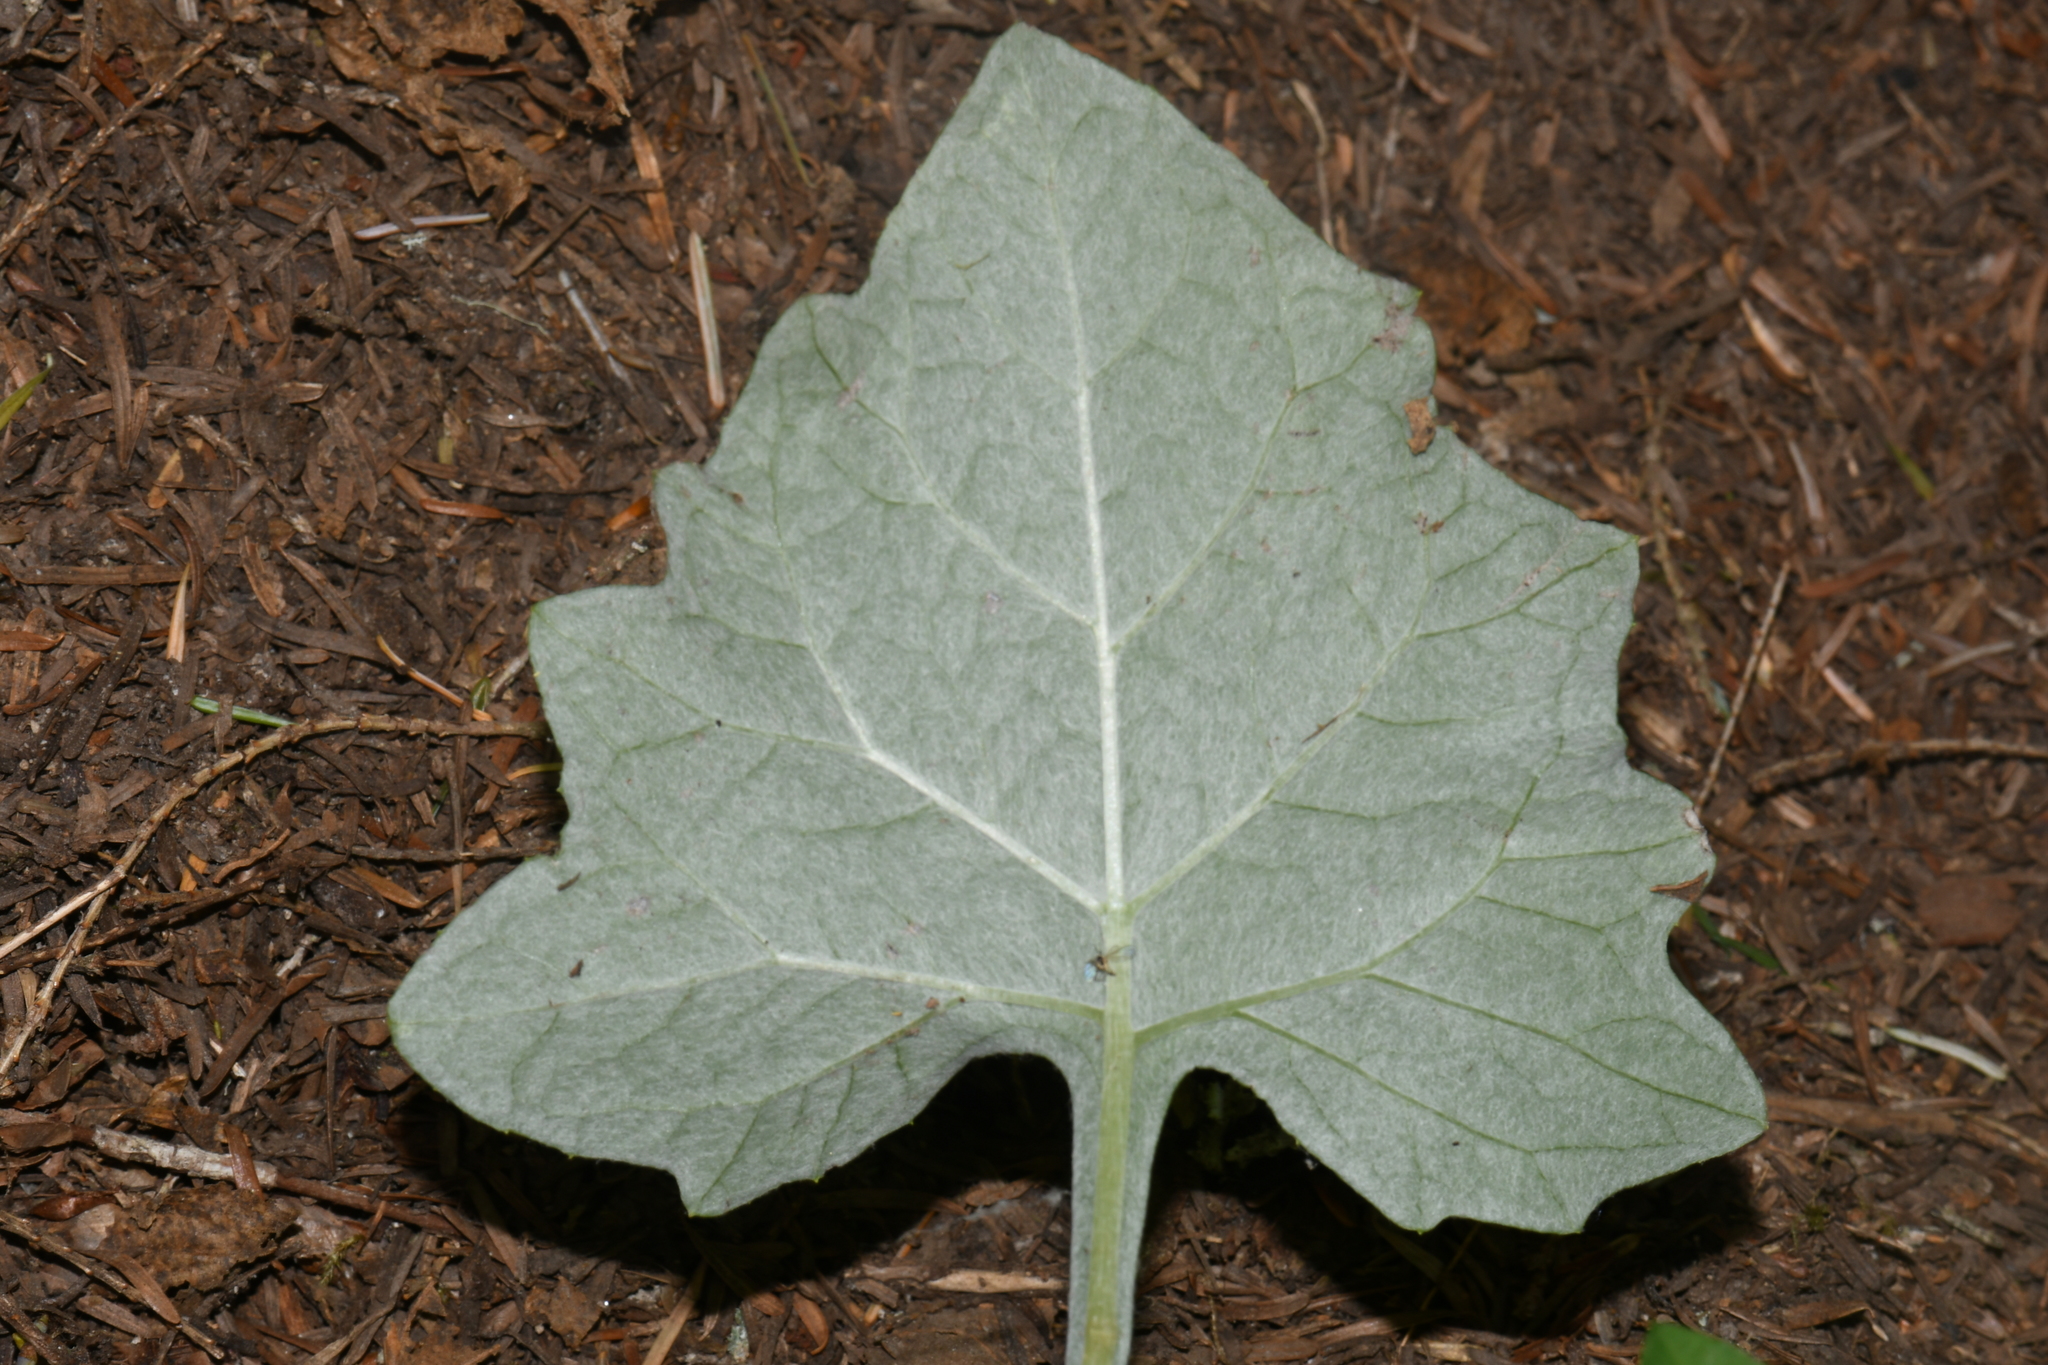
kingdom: Plantae
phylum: Tracheophyta
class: Magnoliopsida
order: Asterales
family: Asteraceae
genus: Adenocaulon
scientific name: Adenocaulon bicolor
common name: Trailplant
